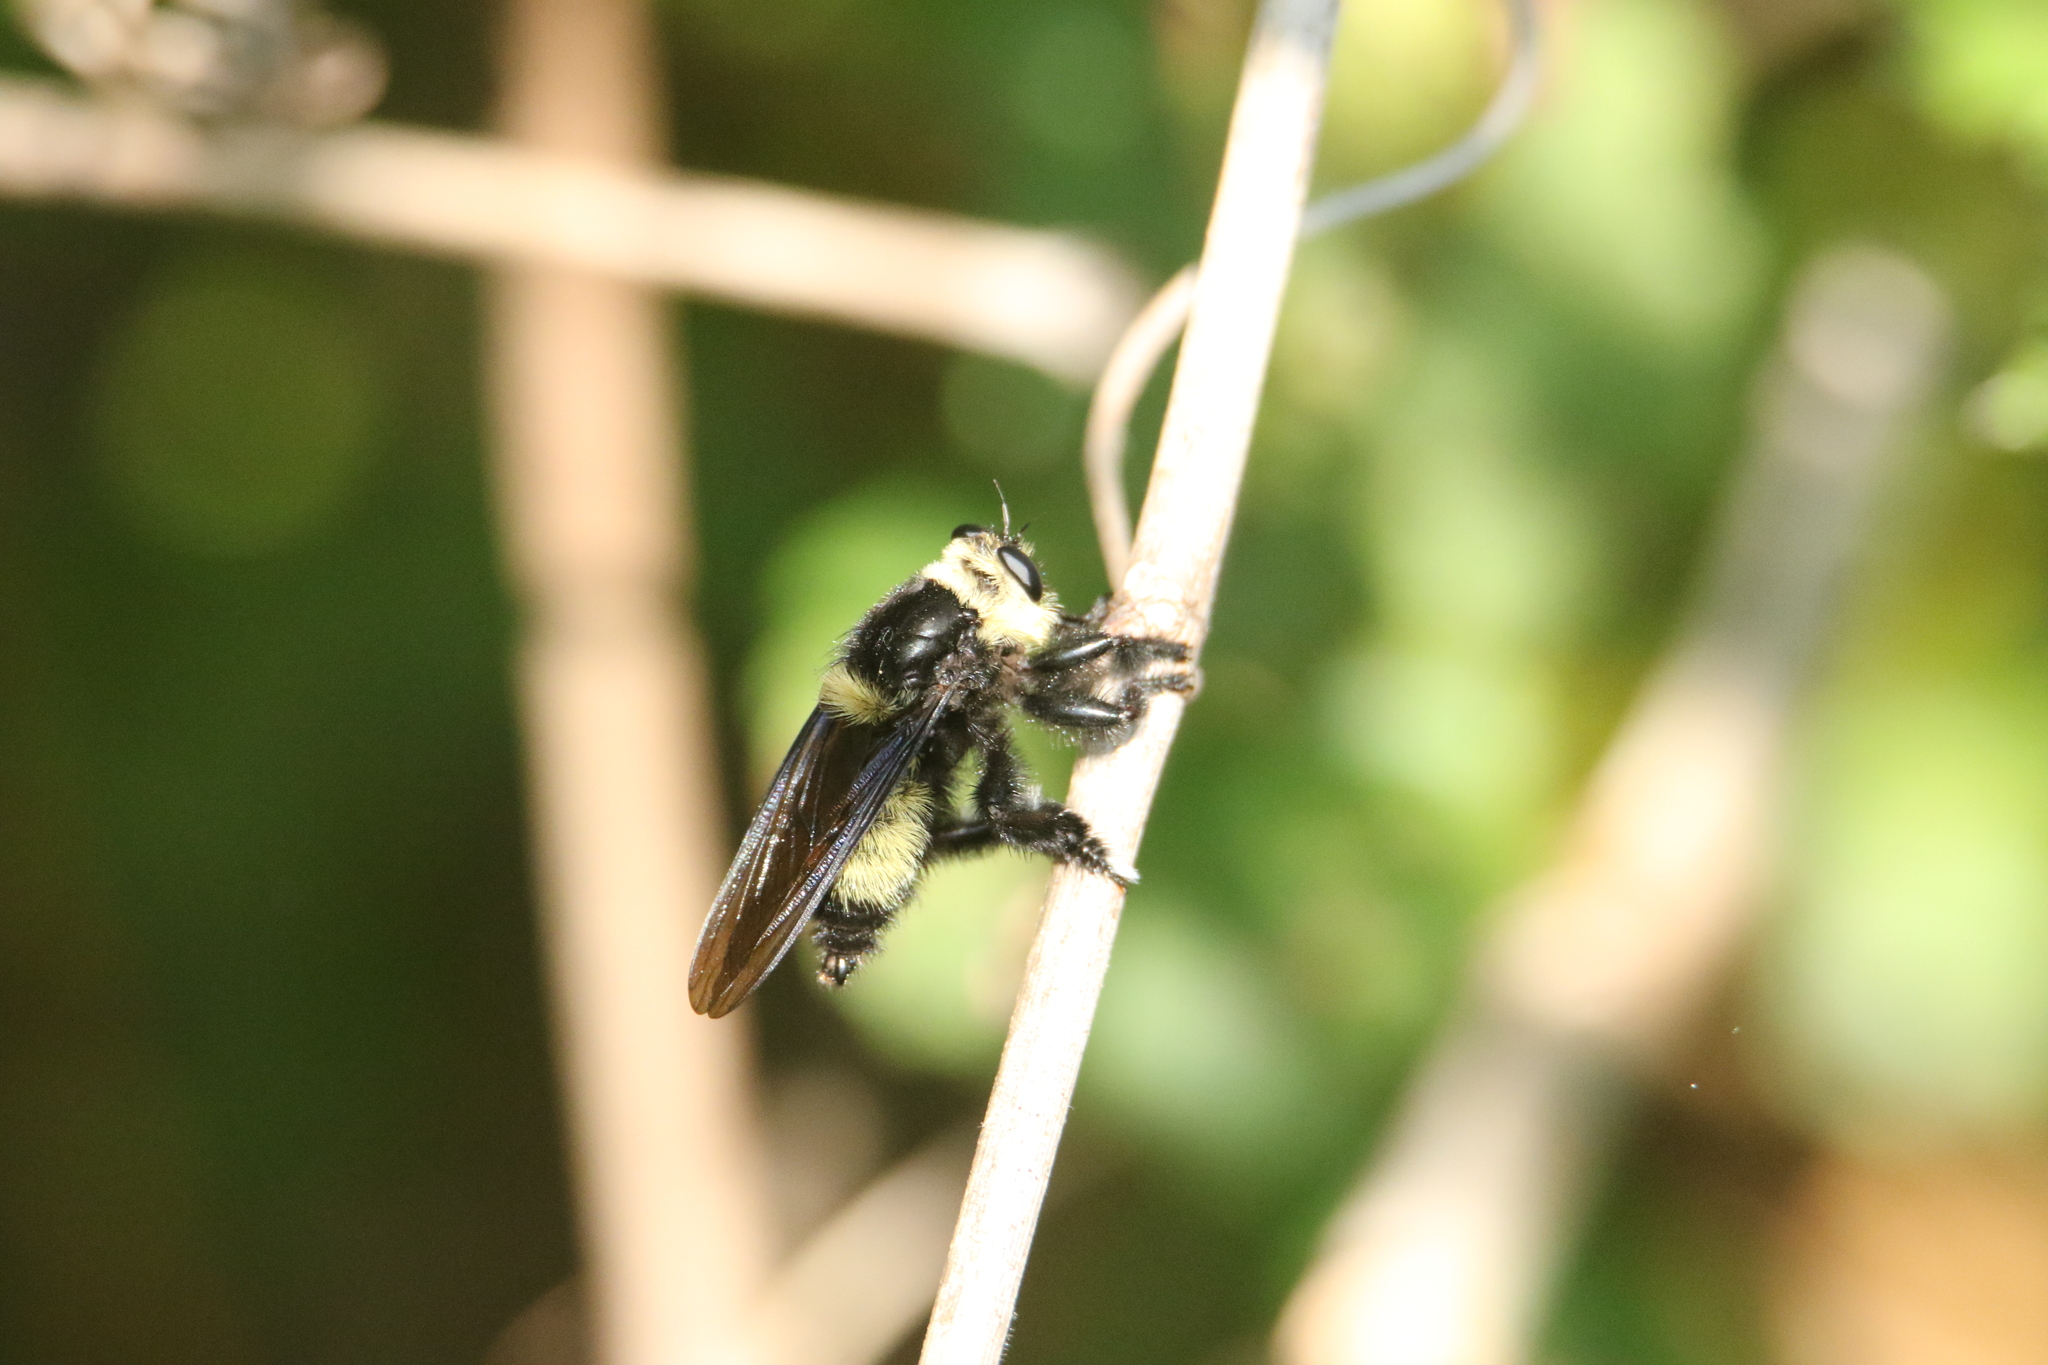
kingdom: Animalia
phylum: Arthropoda
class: Insecta
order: Diptera
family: Asilidae
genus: Mallophora
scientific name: Mallophora orcina
